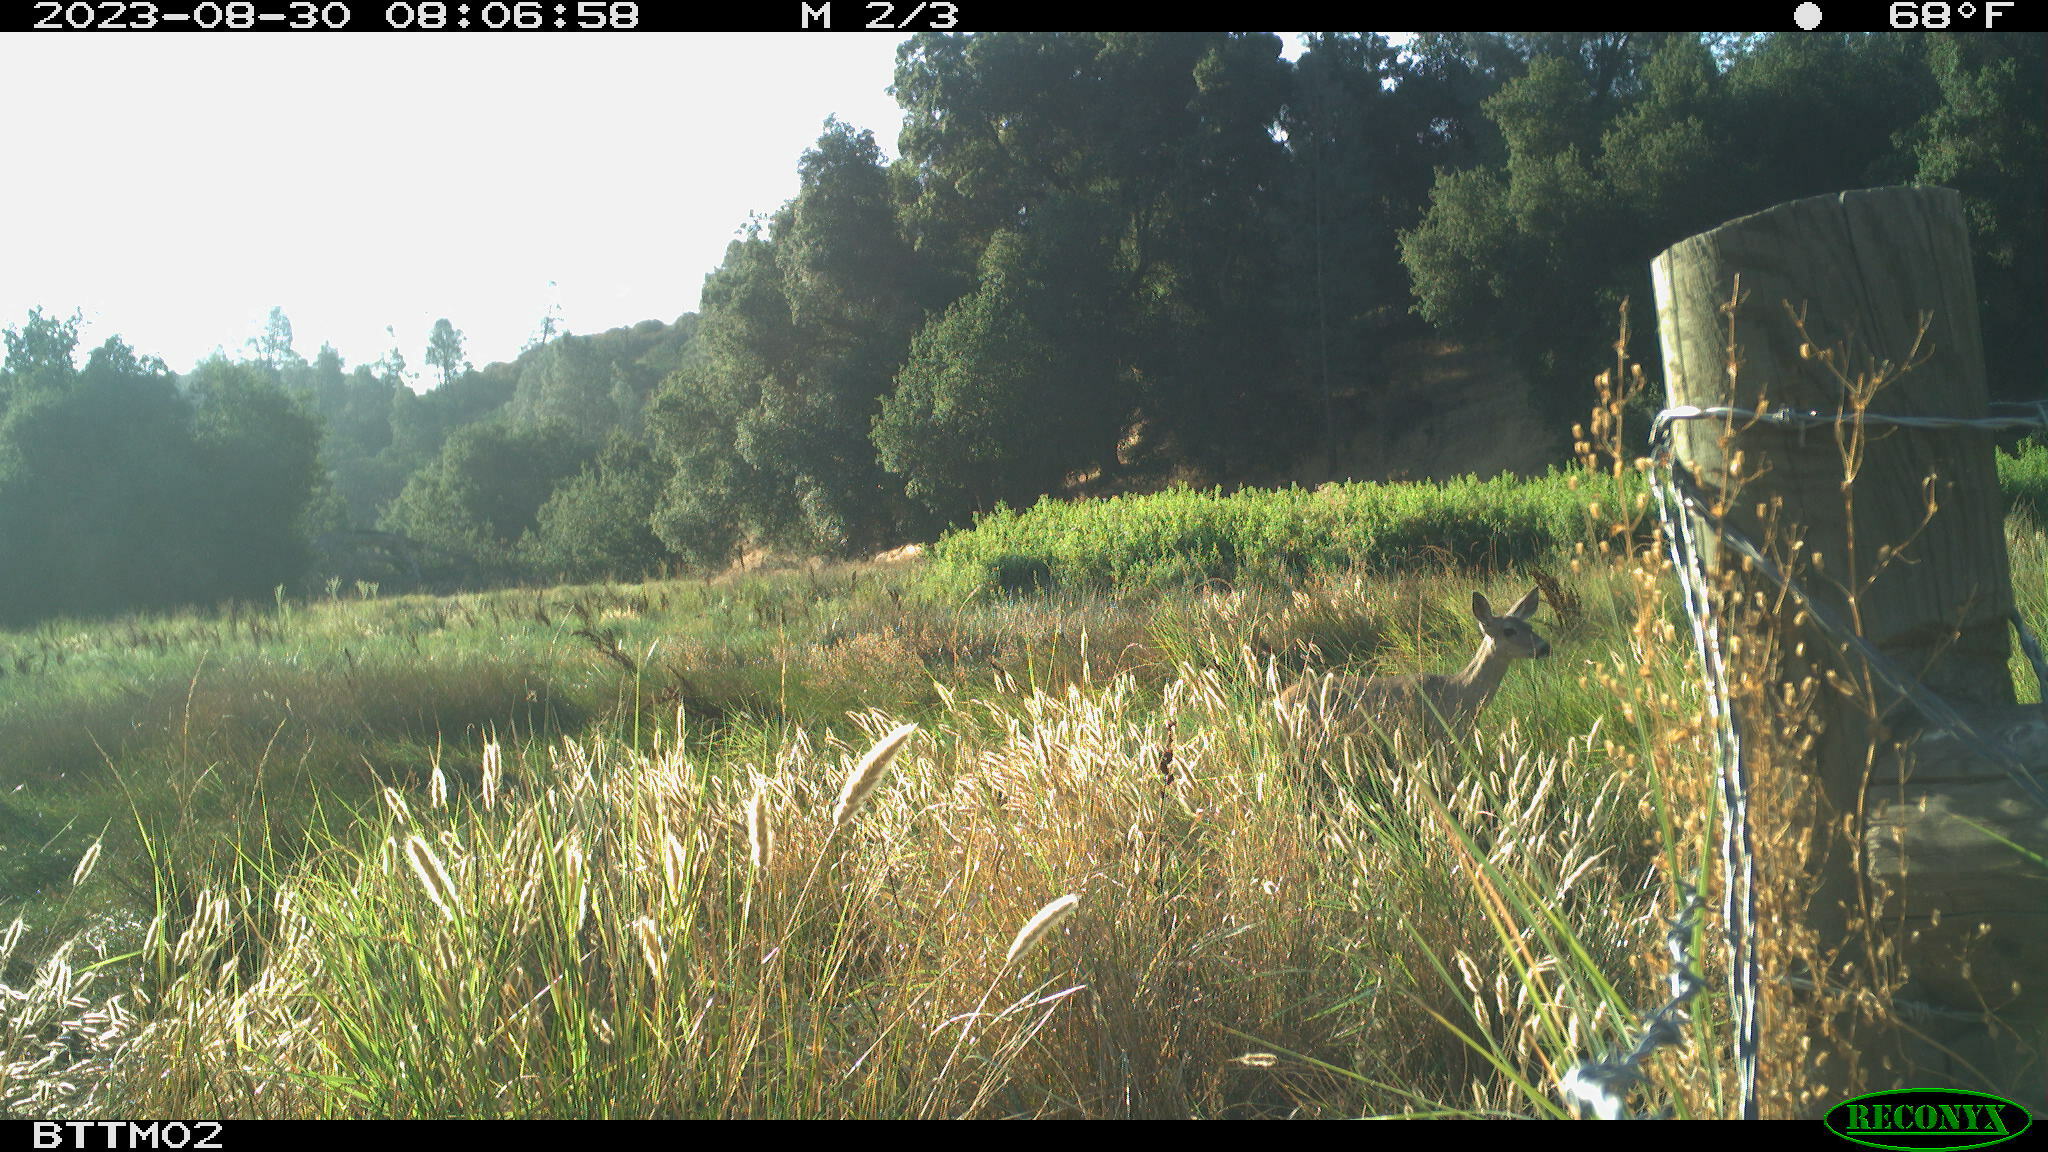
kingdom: Animalia
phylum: Chordata
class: Mammalia
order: Artiodactyla
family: Cervidae
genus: Odocoileus
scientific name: Odocoileus hemionus
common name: Mule deer
